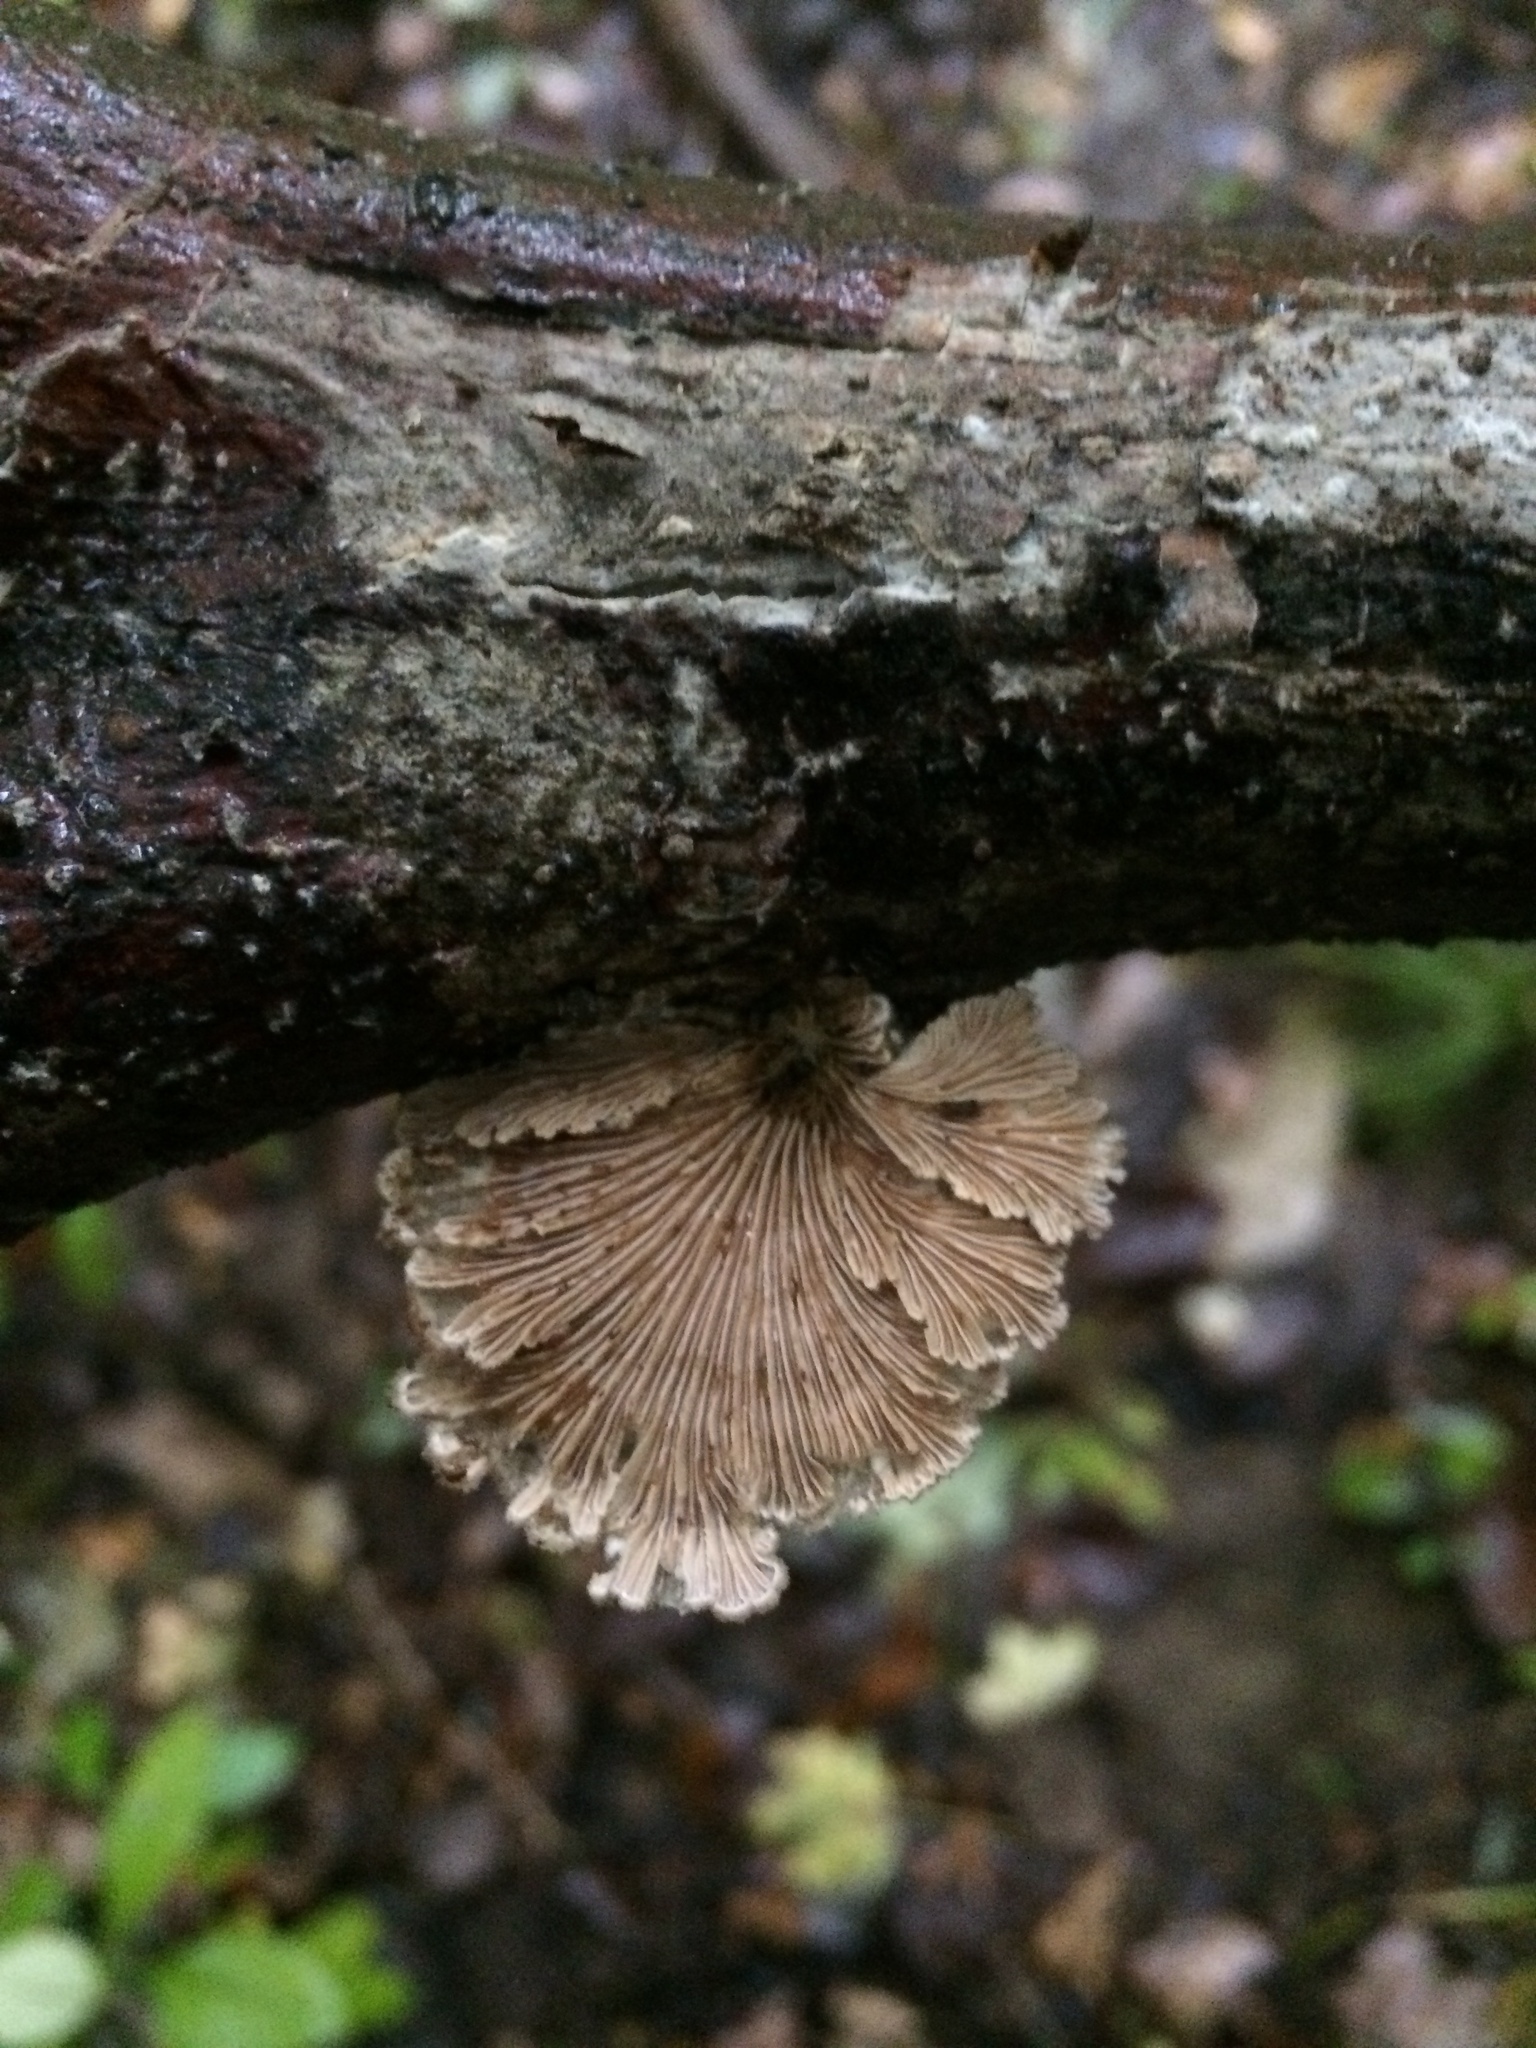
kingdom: Fungi
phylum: Basidiomycota
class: Agaricomycetes
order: Agaricales
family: Schizophyllaceae
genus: Schizophyllum
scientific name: Schizophyllum commune
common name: Common porecrust
